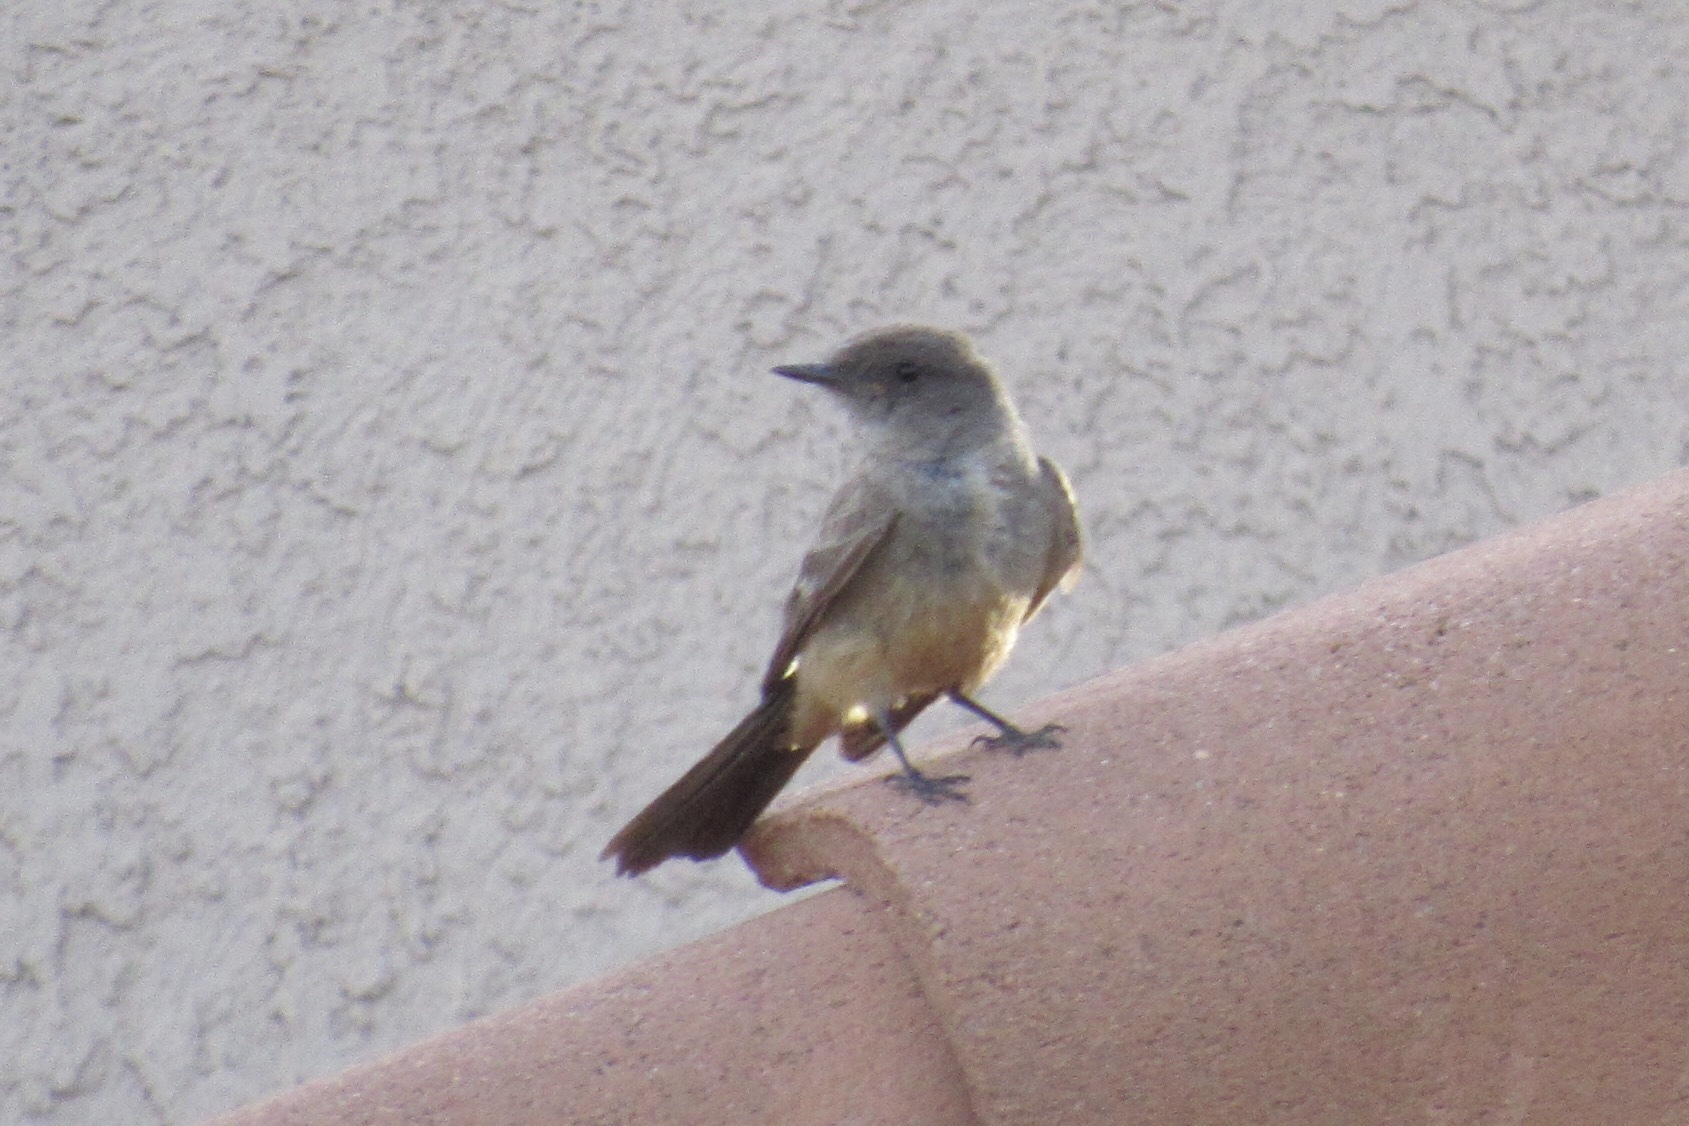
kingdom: Animalia
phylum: Chordata
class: Aves
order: Passeriformes
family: Tyrannidae
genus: Sayornis
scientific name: Sayornis saya
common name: Say's phoebe
